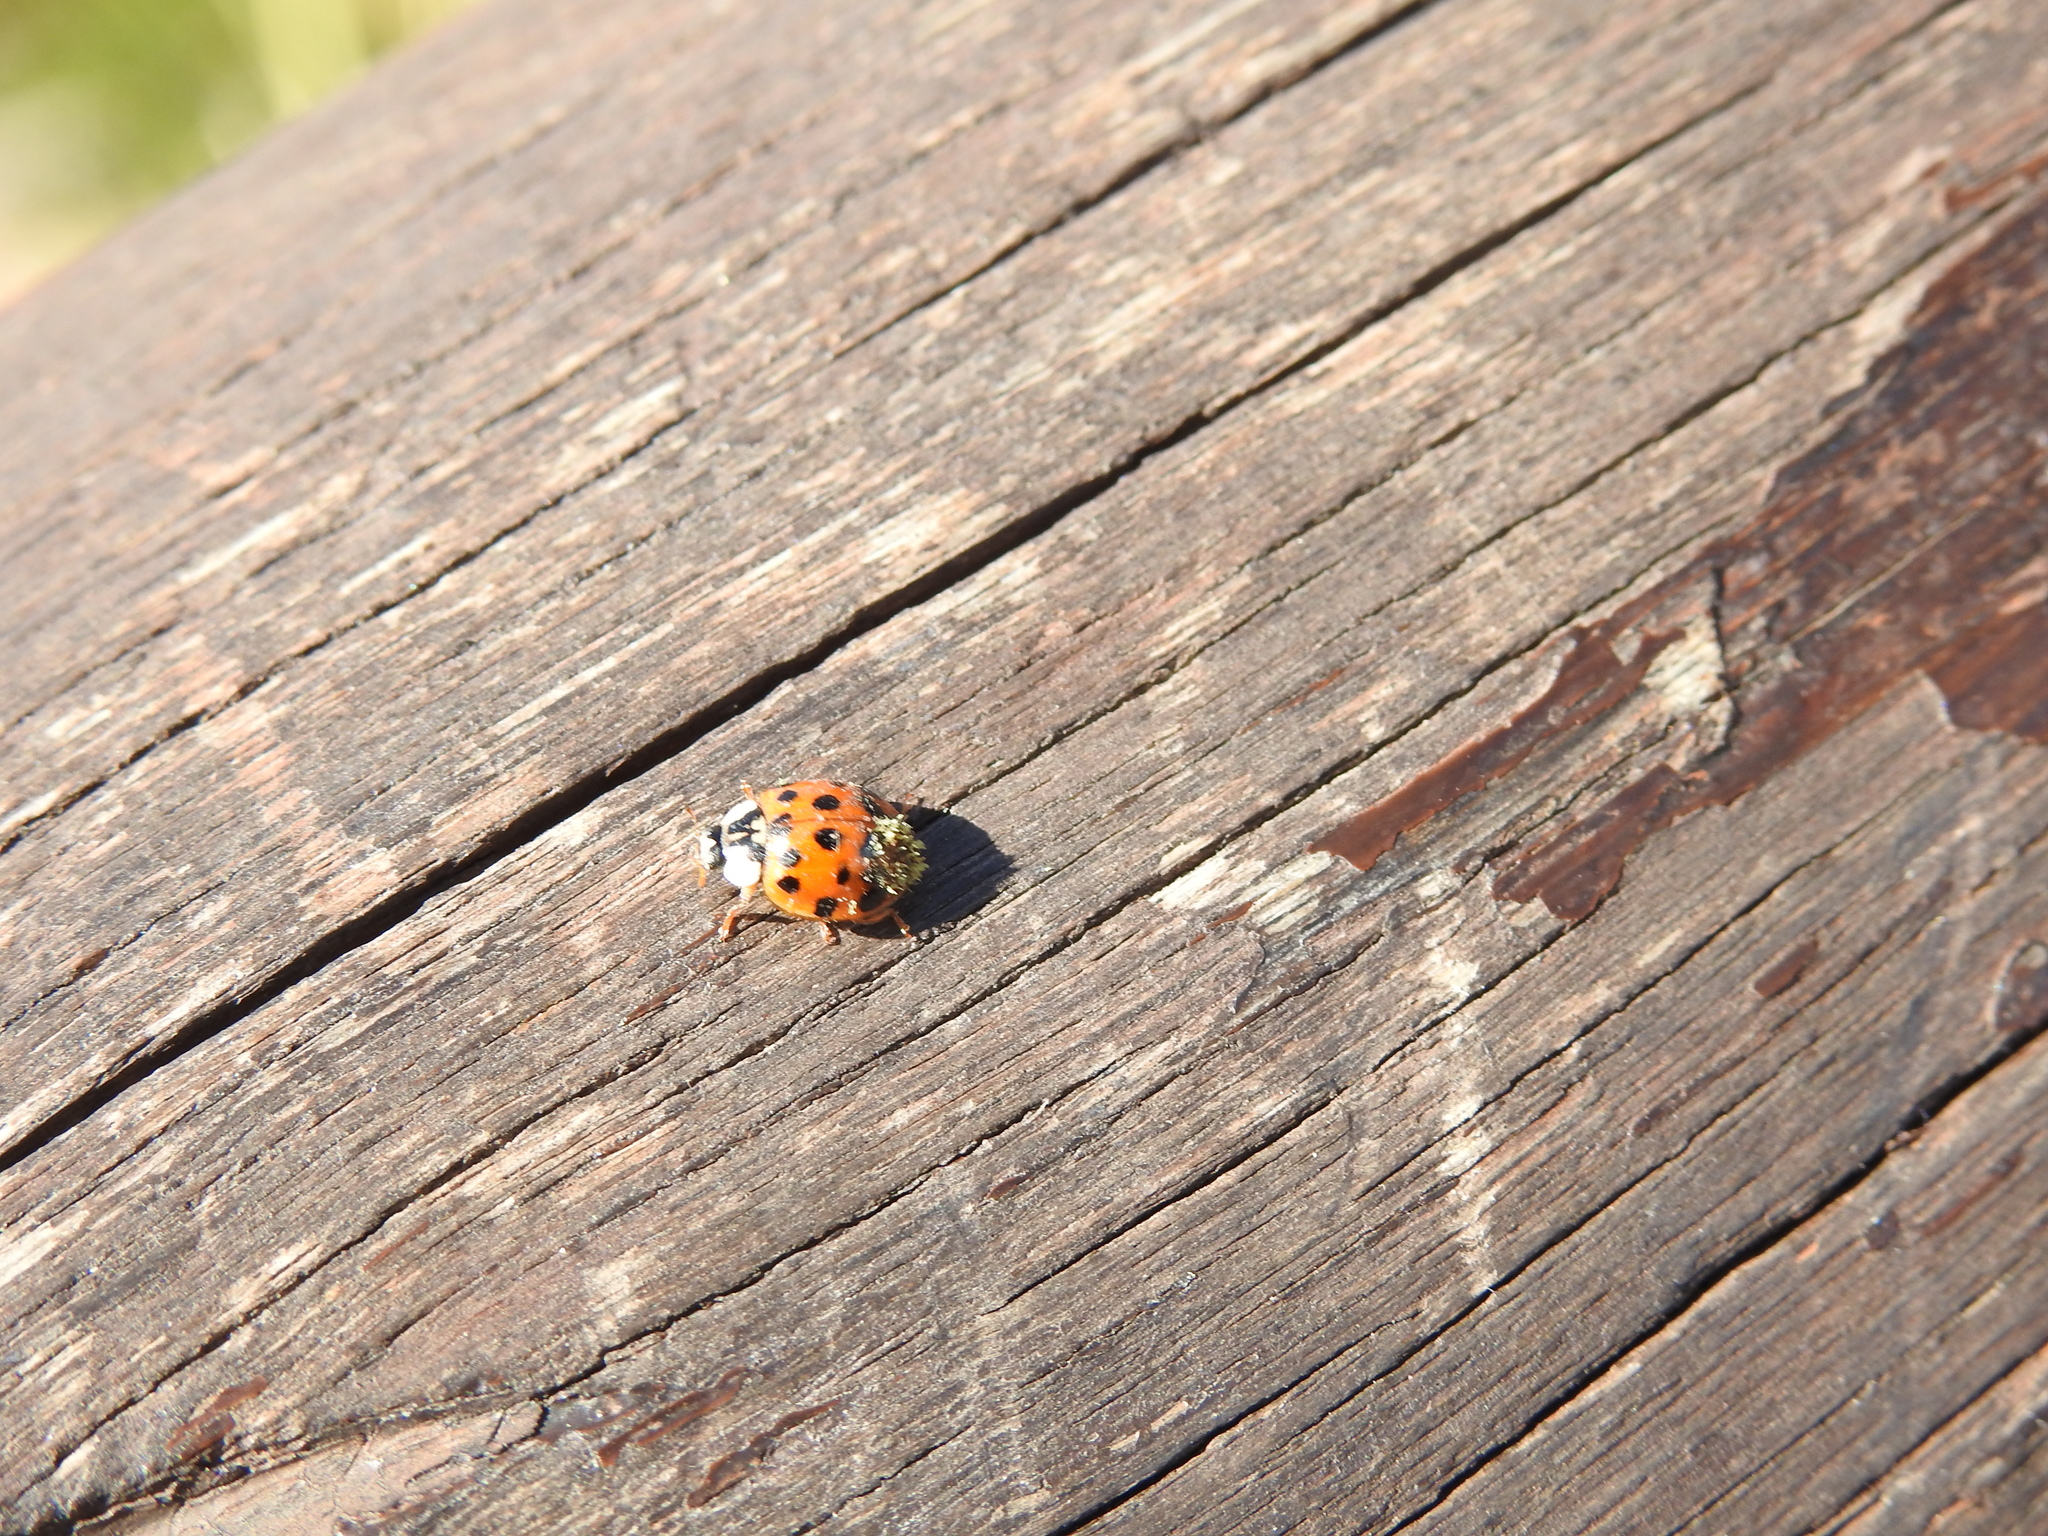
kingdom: Animalia
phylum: Arthropoda
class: Insecta
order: Coleoptera
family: Coccinellidae
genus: Harmonia
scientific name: Harmonia axyridis
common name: Harlequin ladybird
